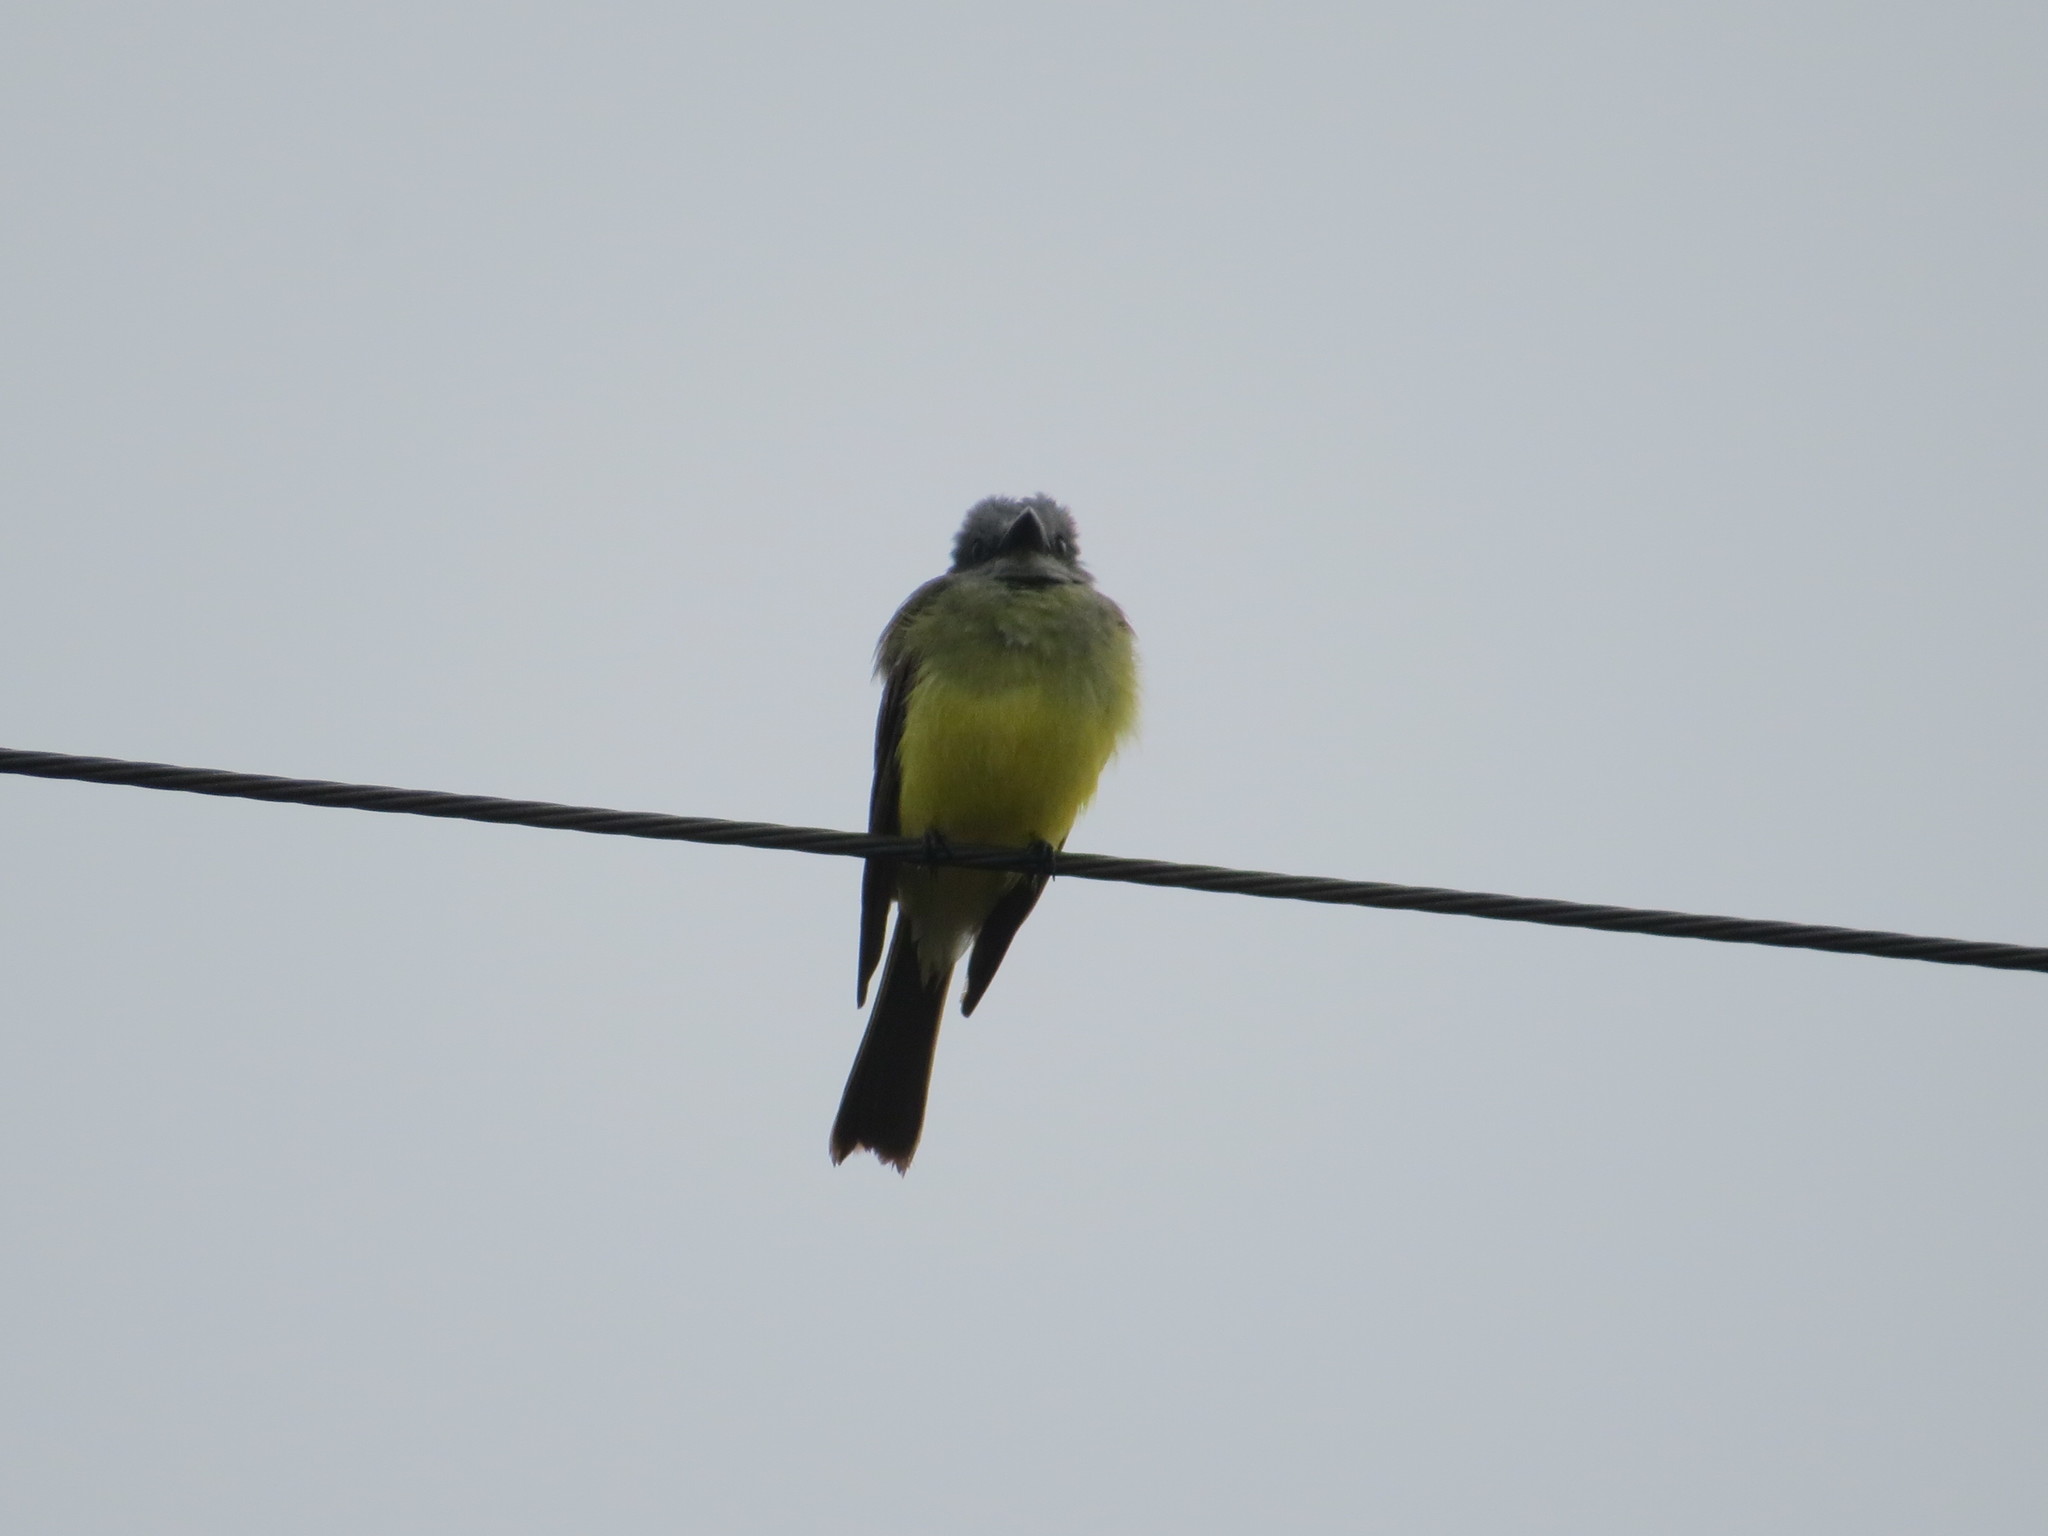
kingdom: Animalia
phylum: Chordata
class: Aves
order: Passeriformes
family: Tyrannidae
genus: Tyrannus
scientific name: Tyrannus melancholicus
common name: Tropical kingbird
